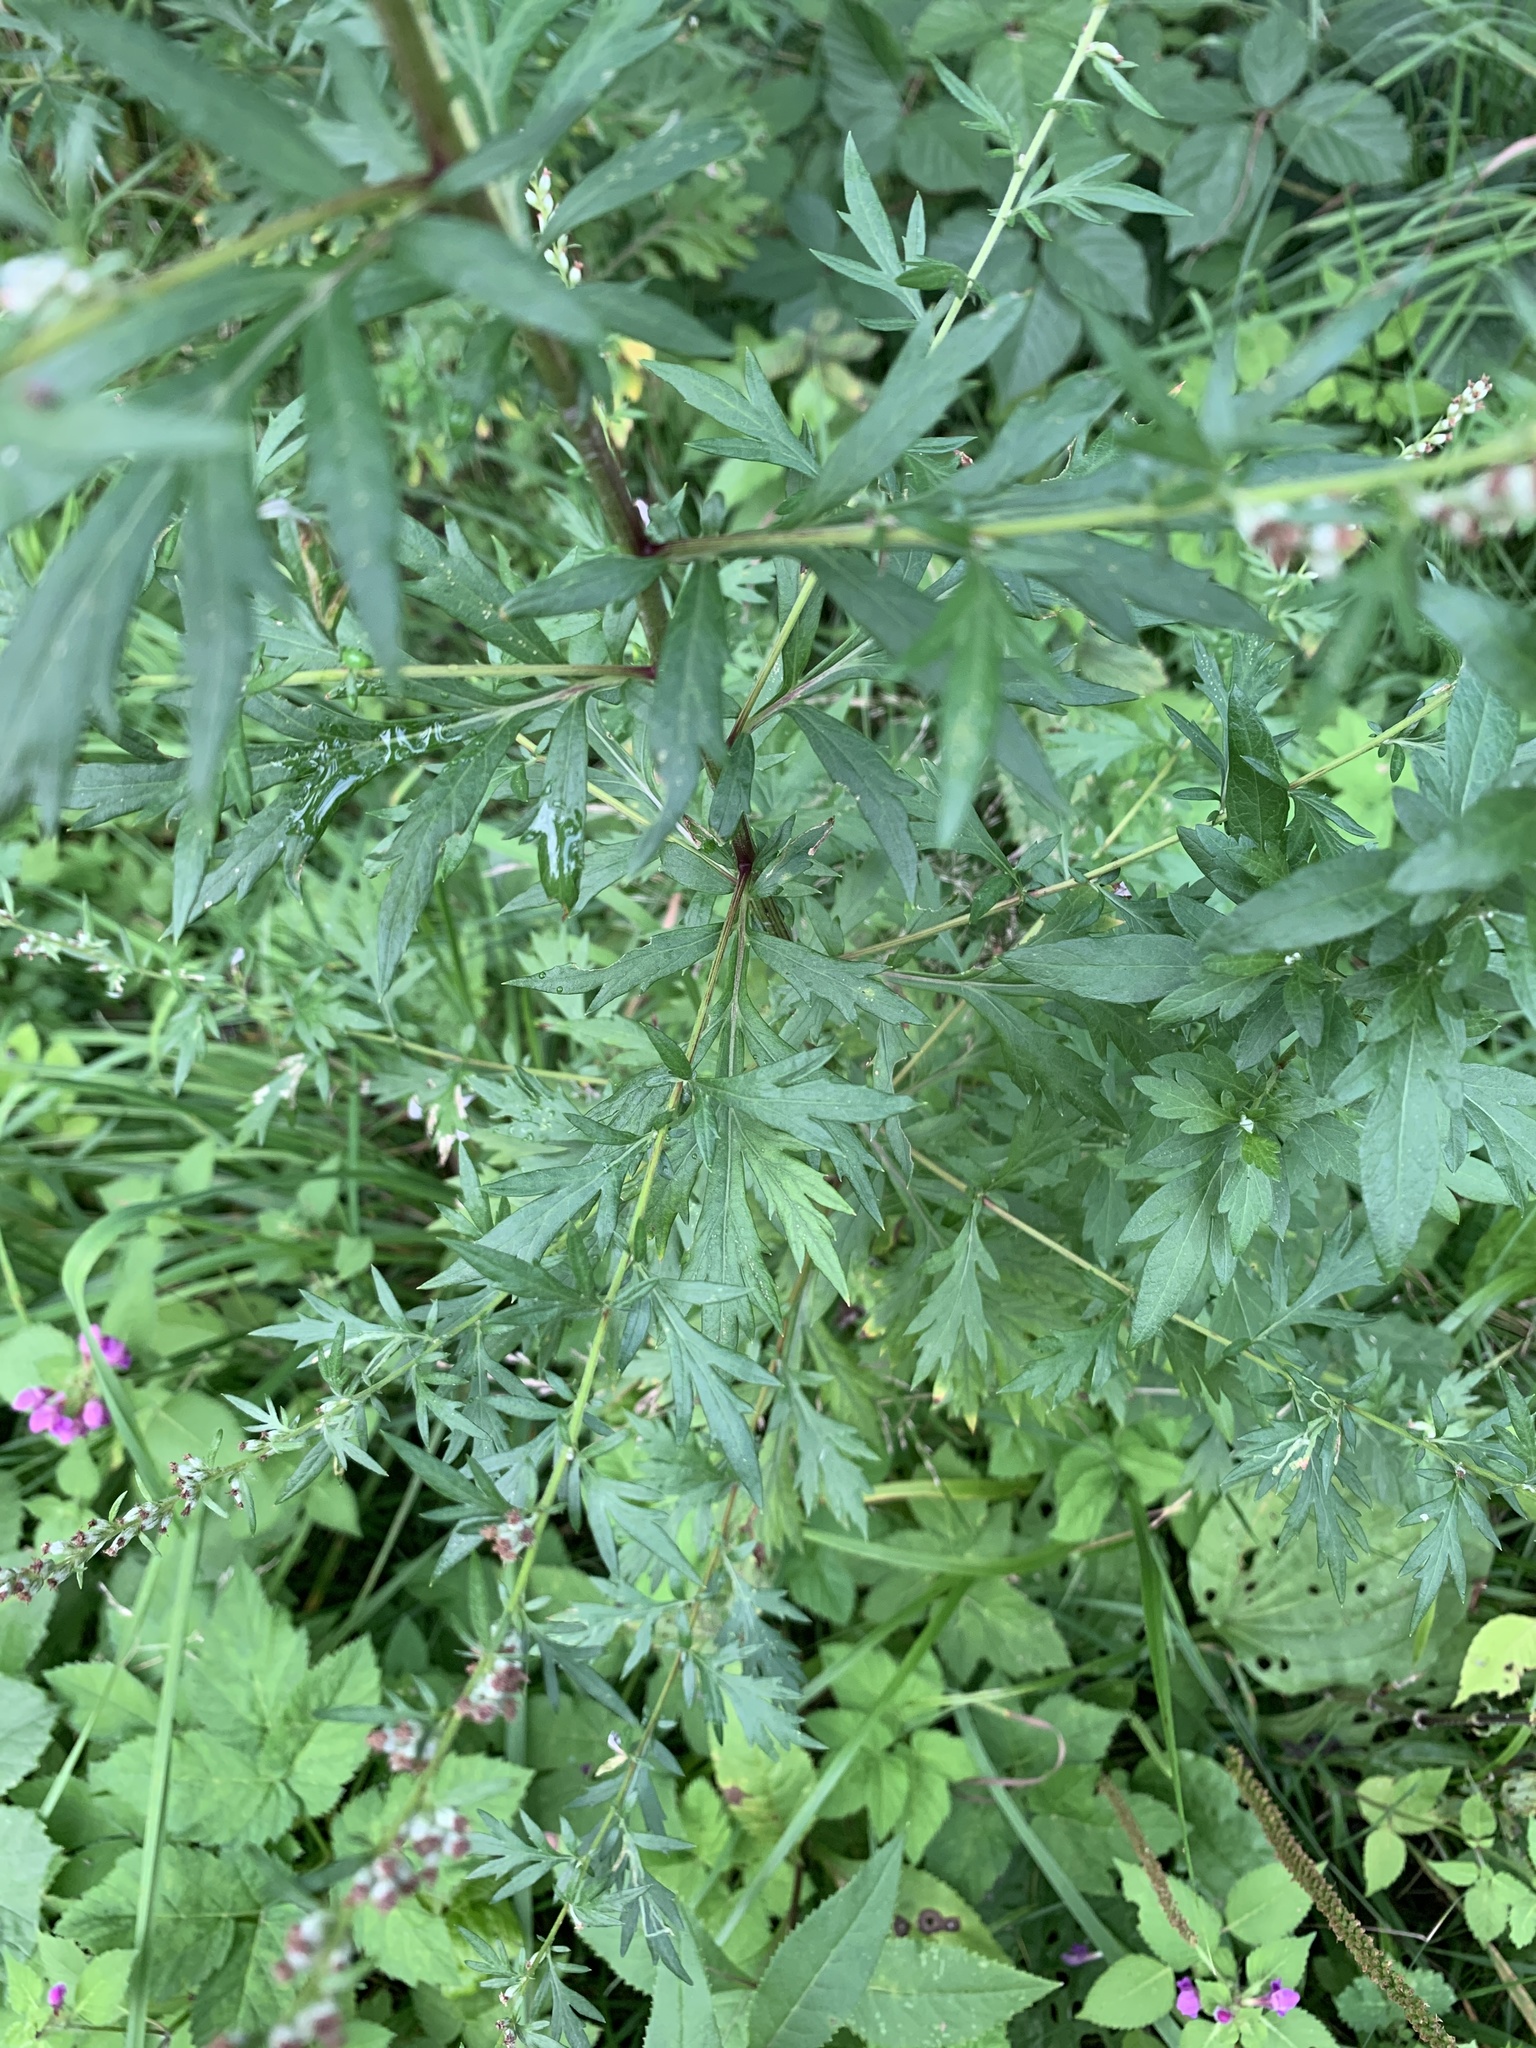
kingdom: Plantae
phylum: Tracheophyta
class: Magnoliopsida
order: Asterales
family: Asteraceae
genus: Artemisia
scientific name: Artemisia vulgaris
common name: Mugwort
